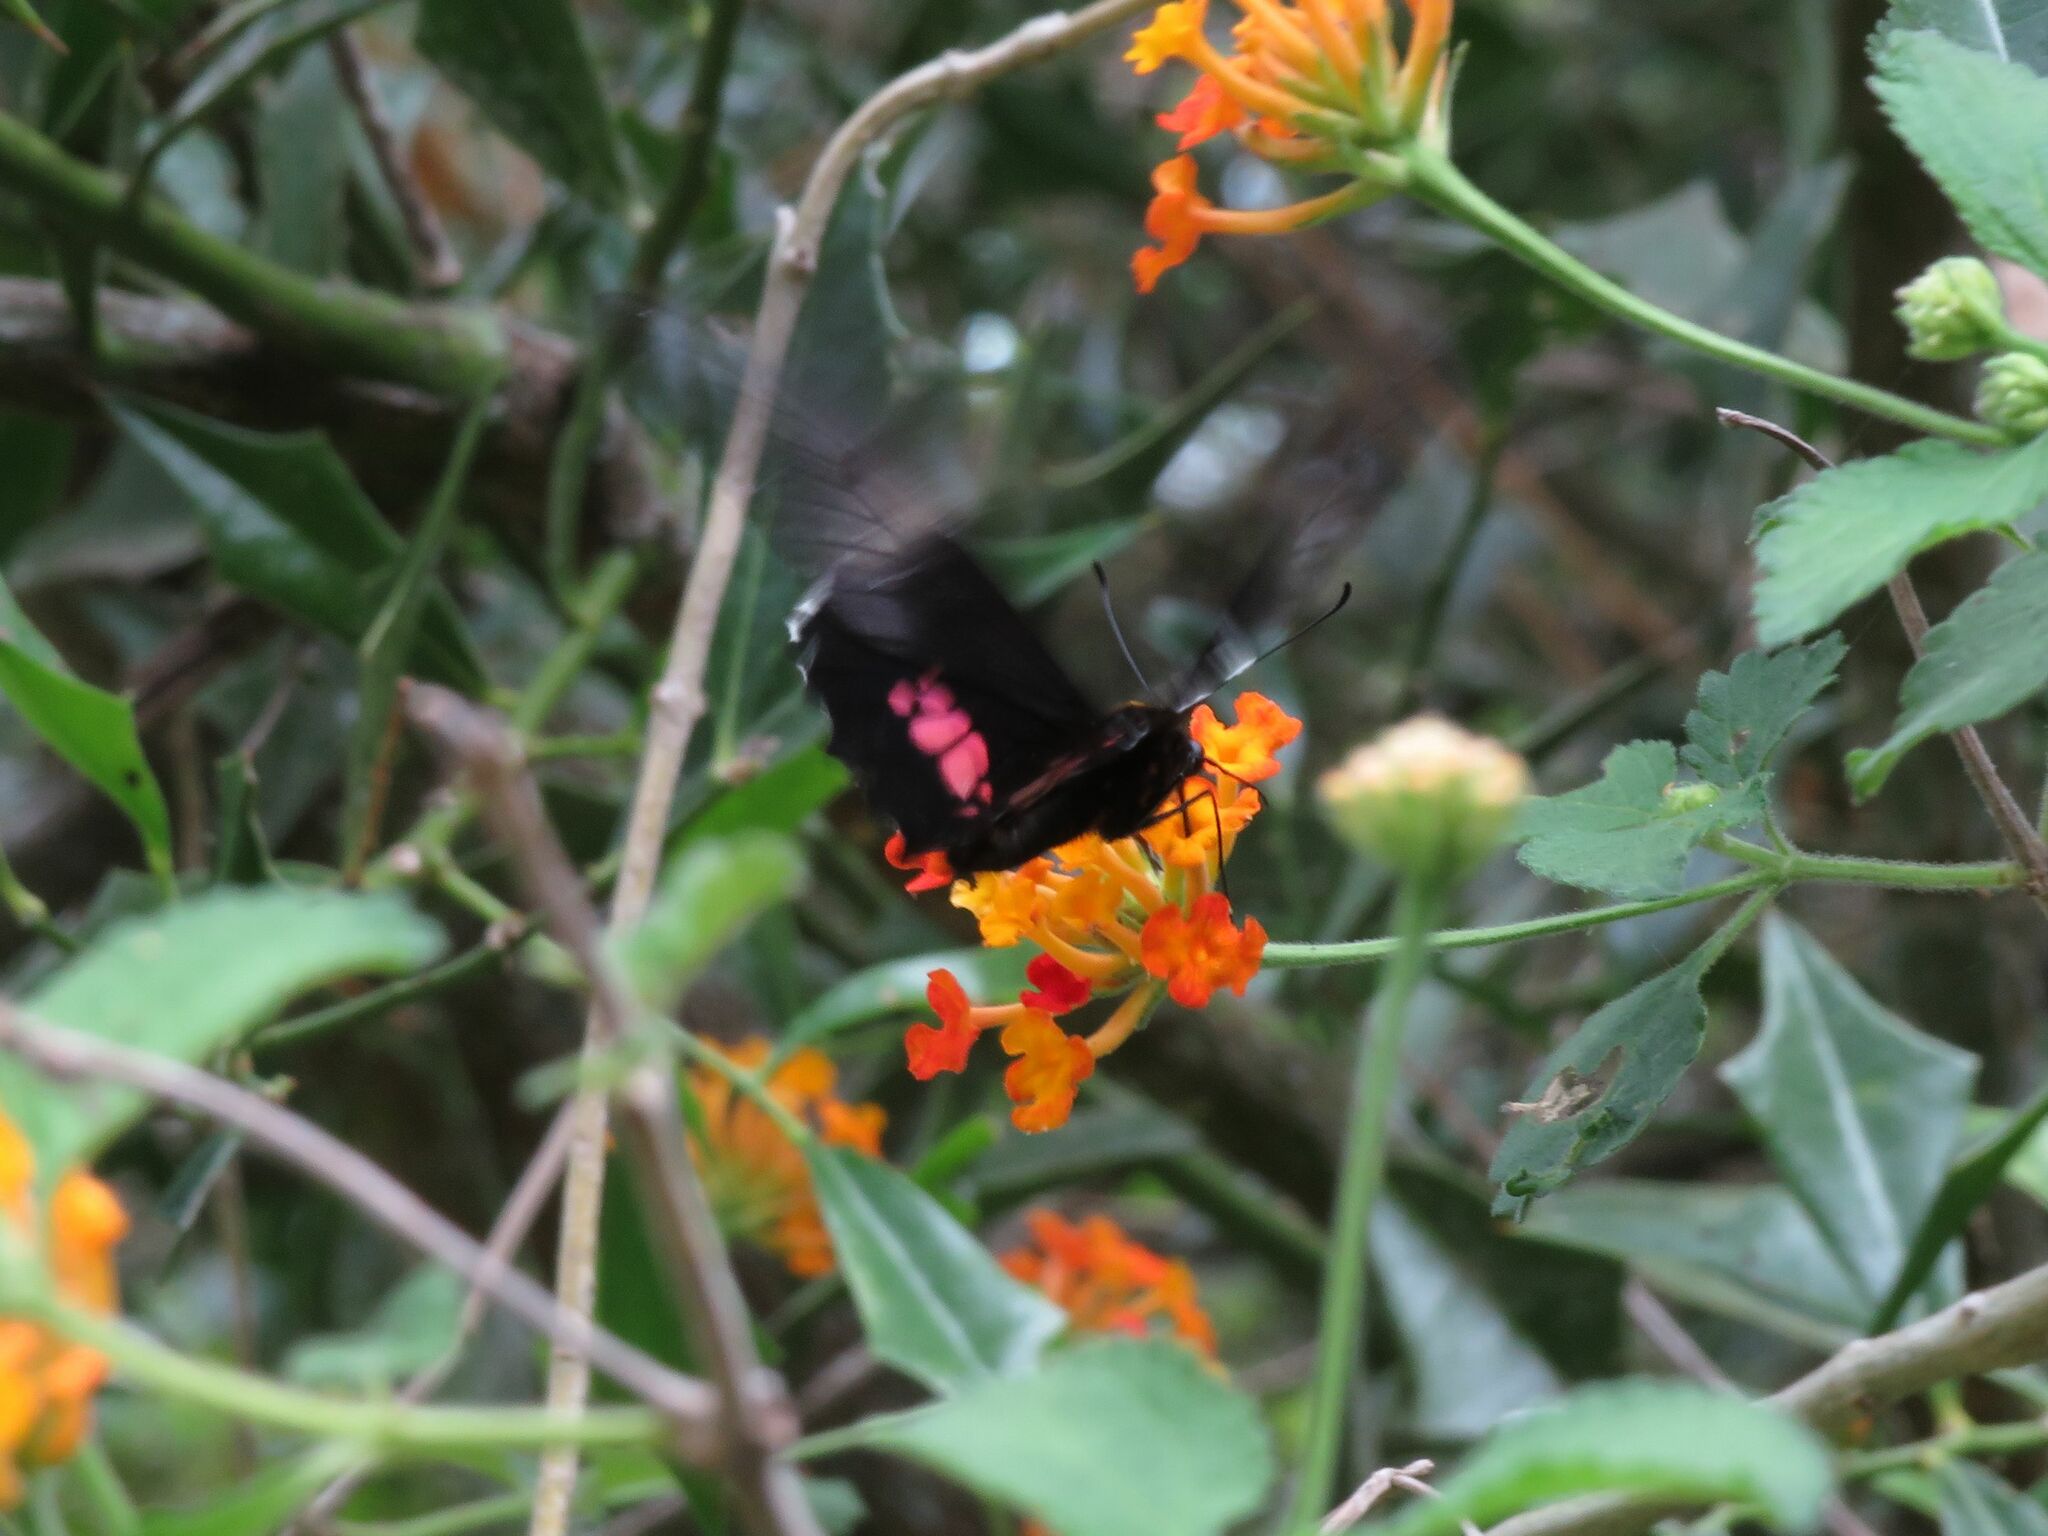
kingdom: Animalia
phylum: Arthropoda
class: Insecta
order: Lepidoptera
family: Papilionidae
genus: Papilio
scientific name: Papilio anchisiades
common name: Idaes swallowtail
